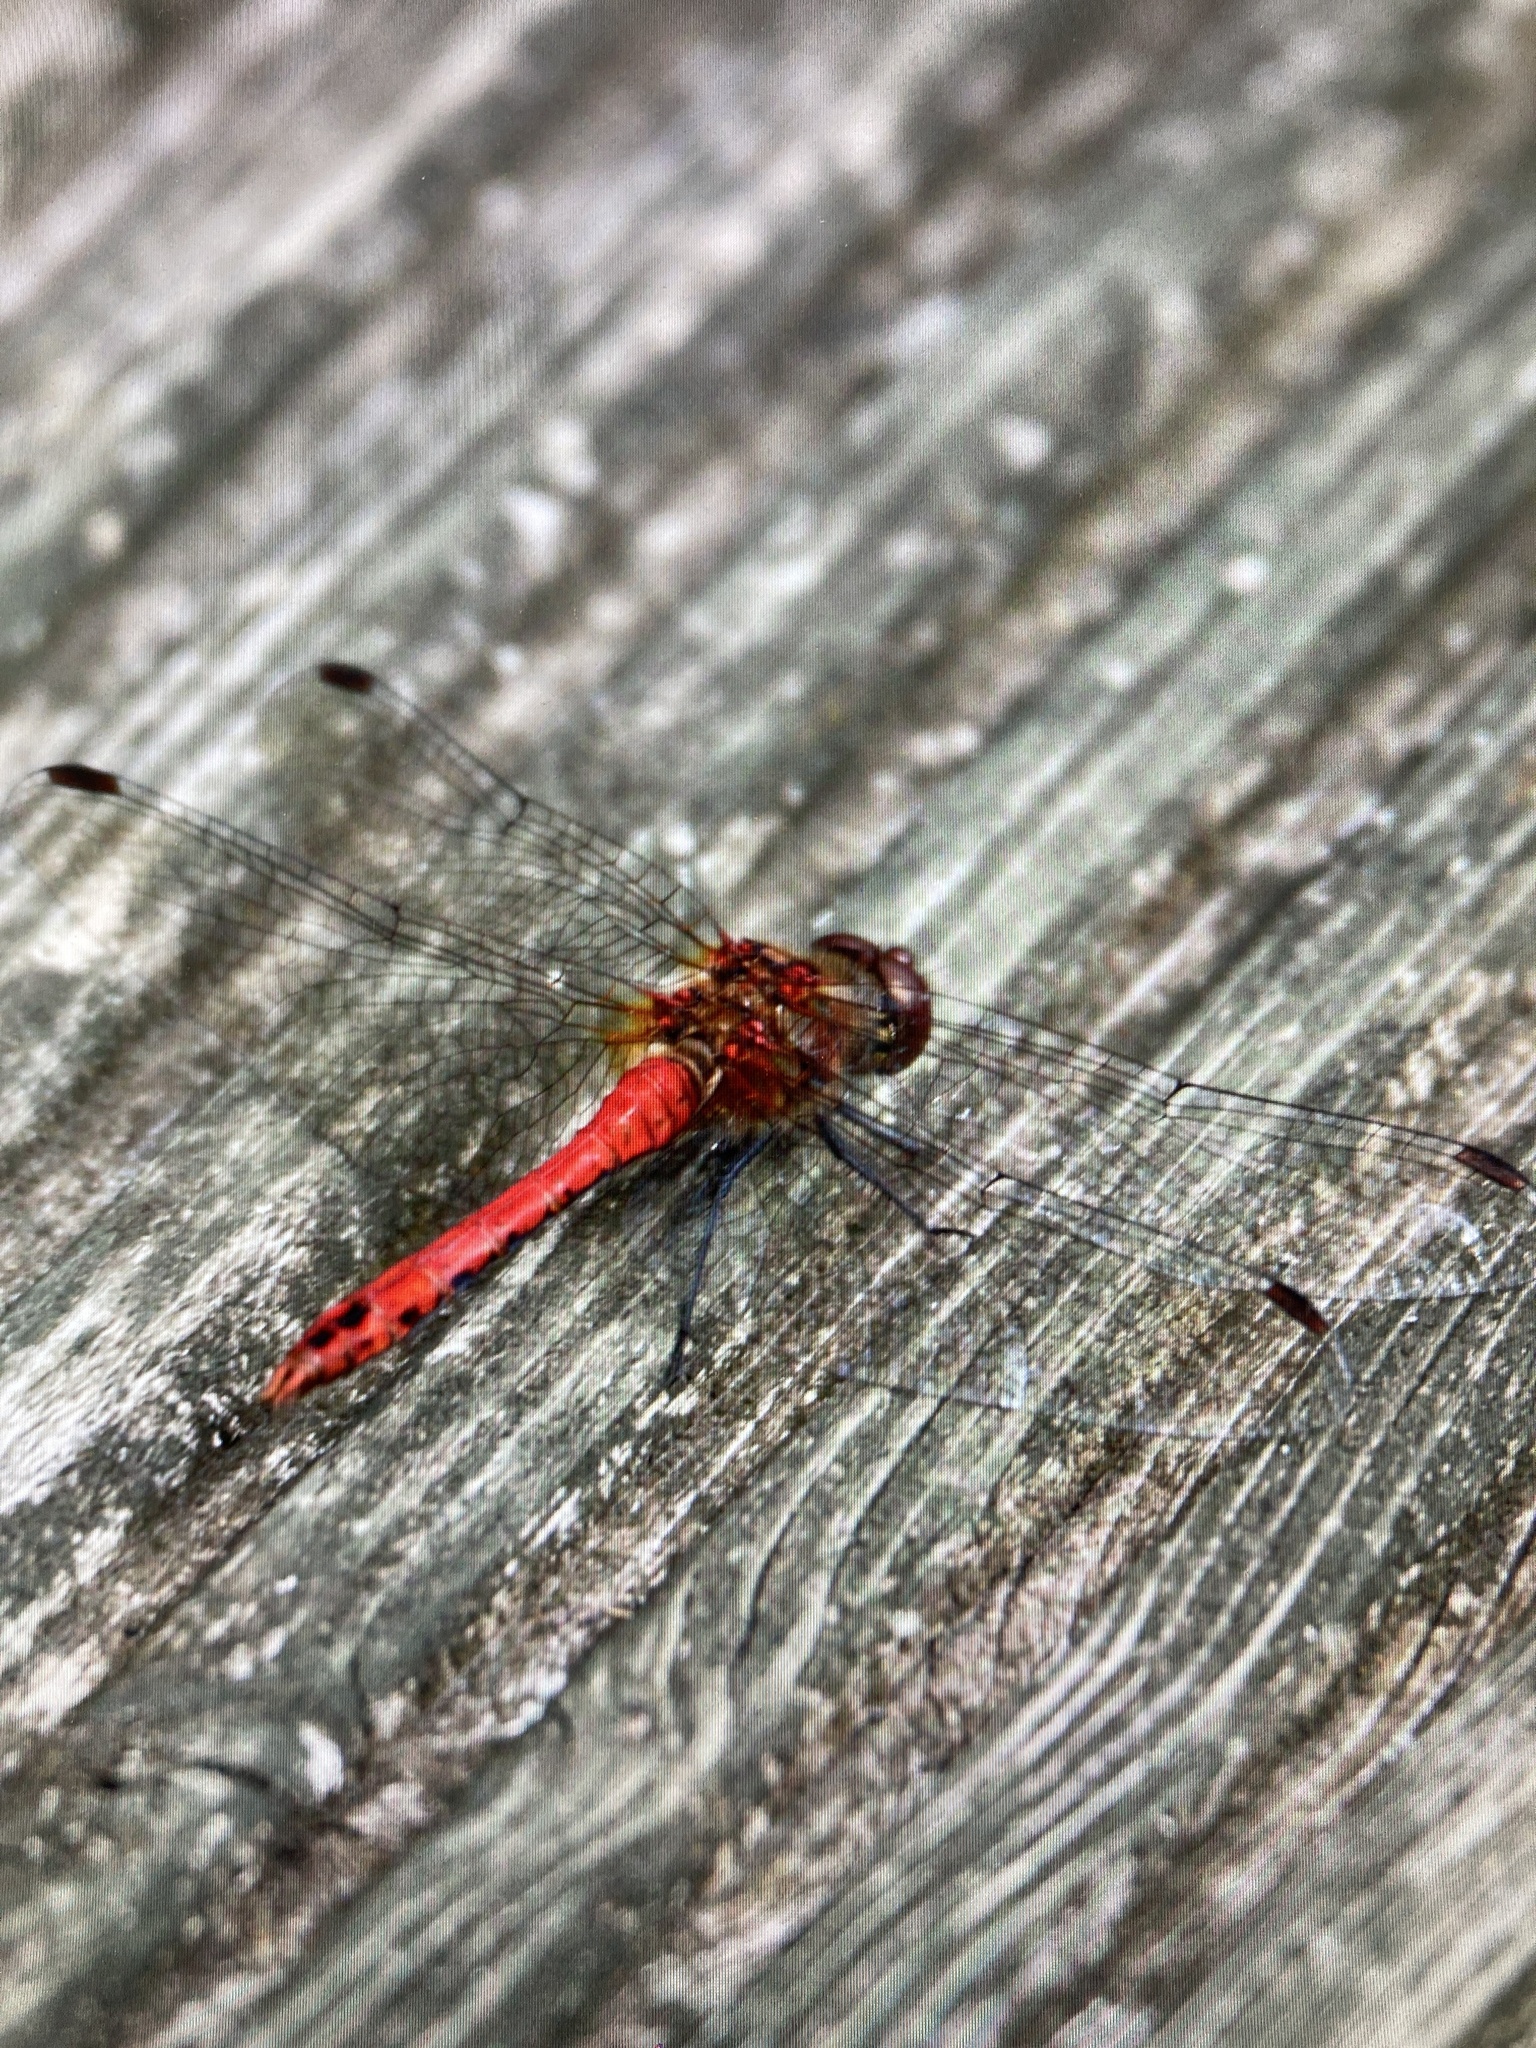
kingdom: Animalia
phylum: Arthropoda
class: Insecta
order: Odonata
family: Libellulidae
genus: Sympetrum
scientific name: Sympetrum sanguineum
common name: Ruddy darter
